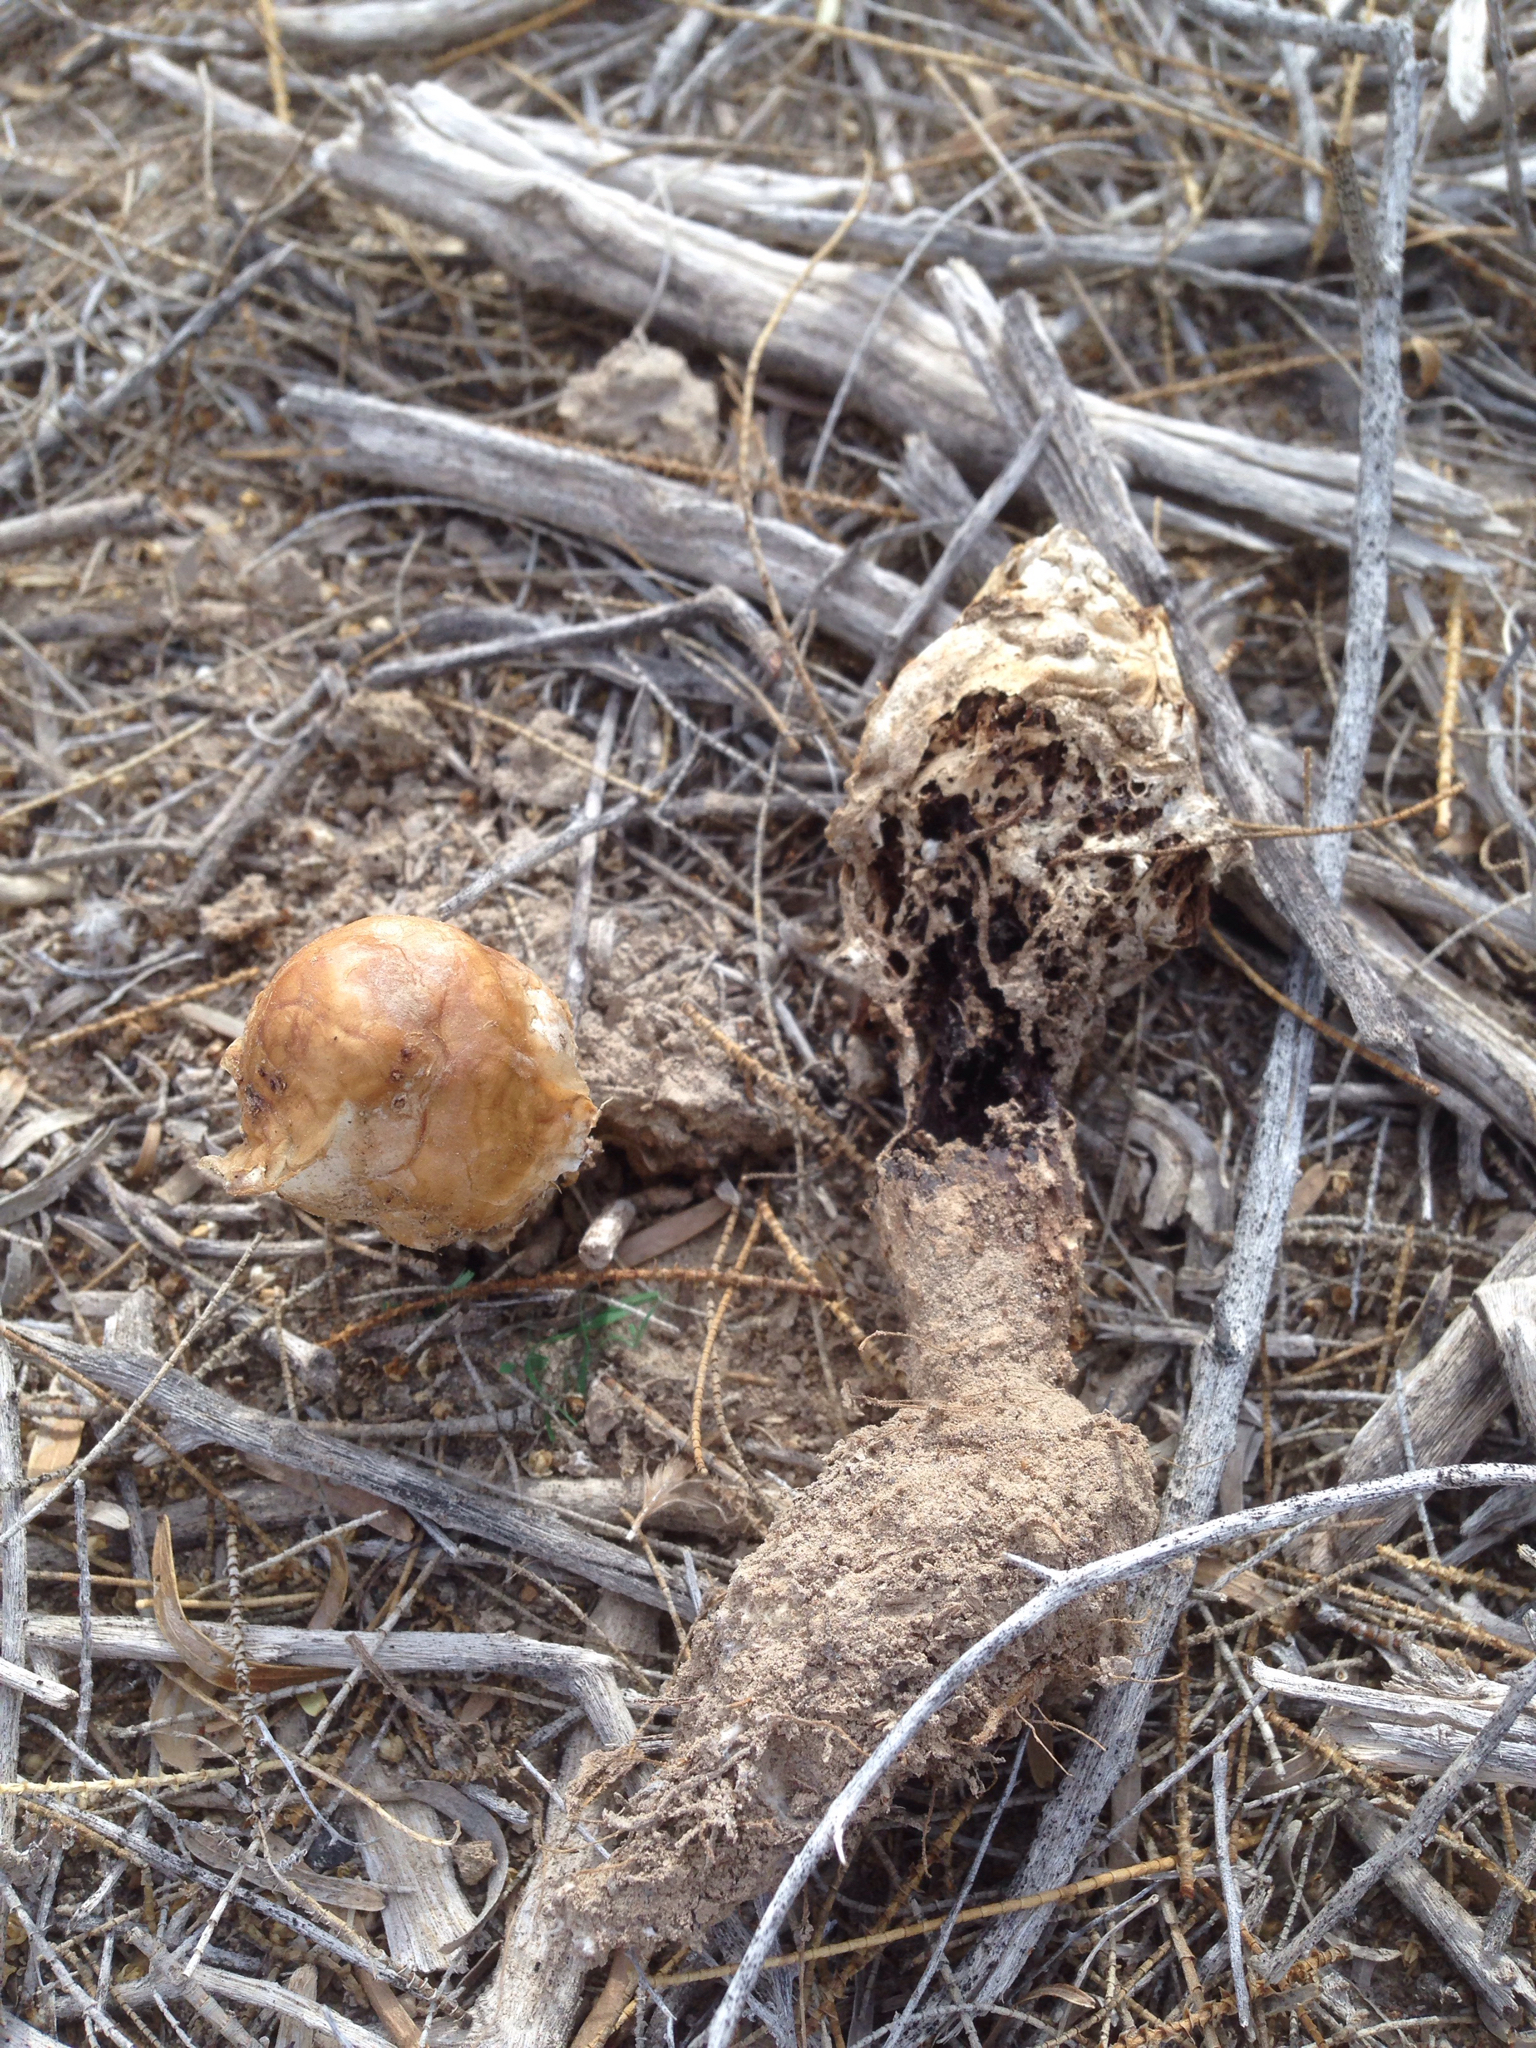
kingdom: Fungi
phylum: Basidiomycota
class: Agaricomycetes
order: Agaricales
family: Agaricaceae
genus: Podaxis
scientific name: Podaxis pistillaris
